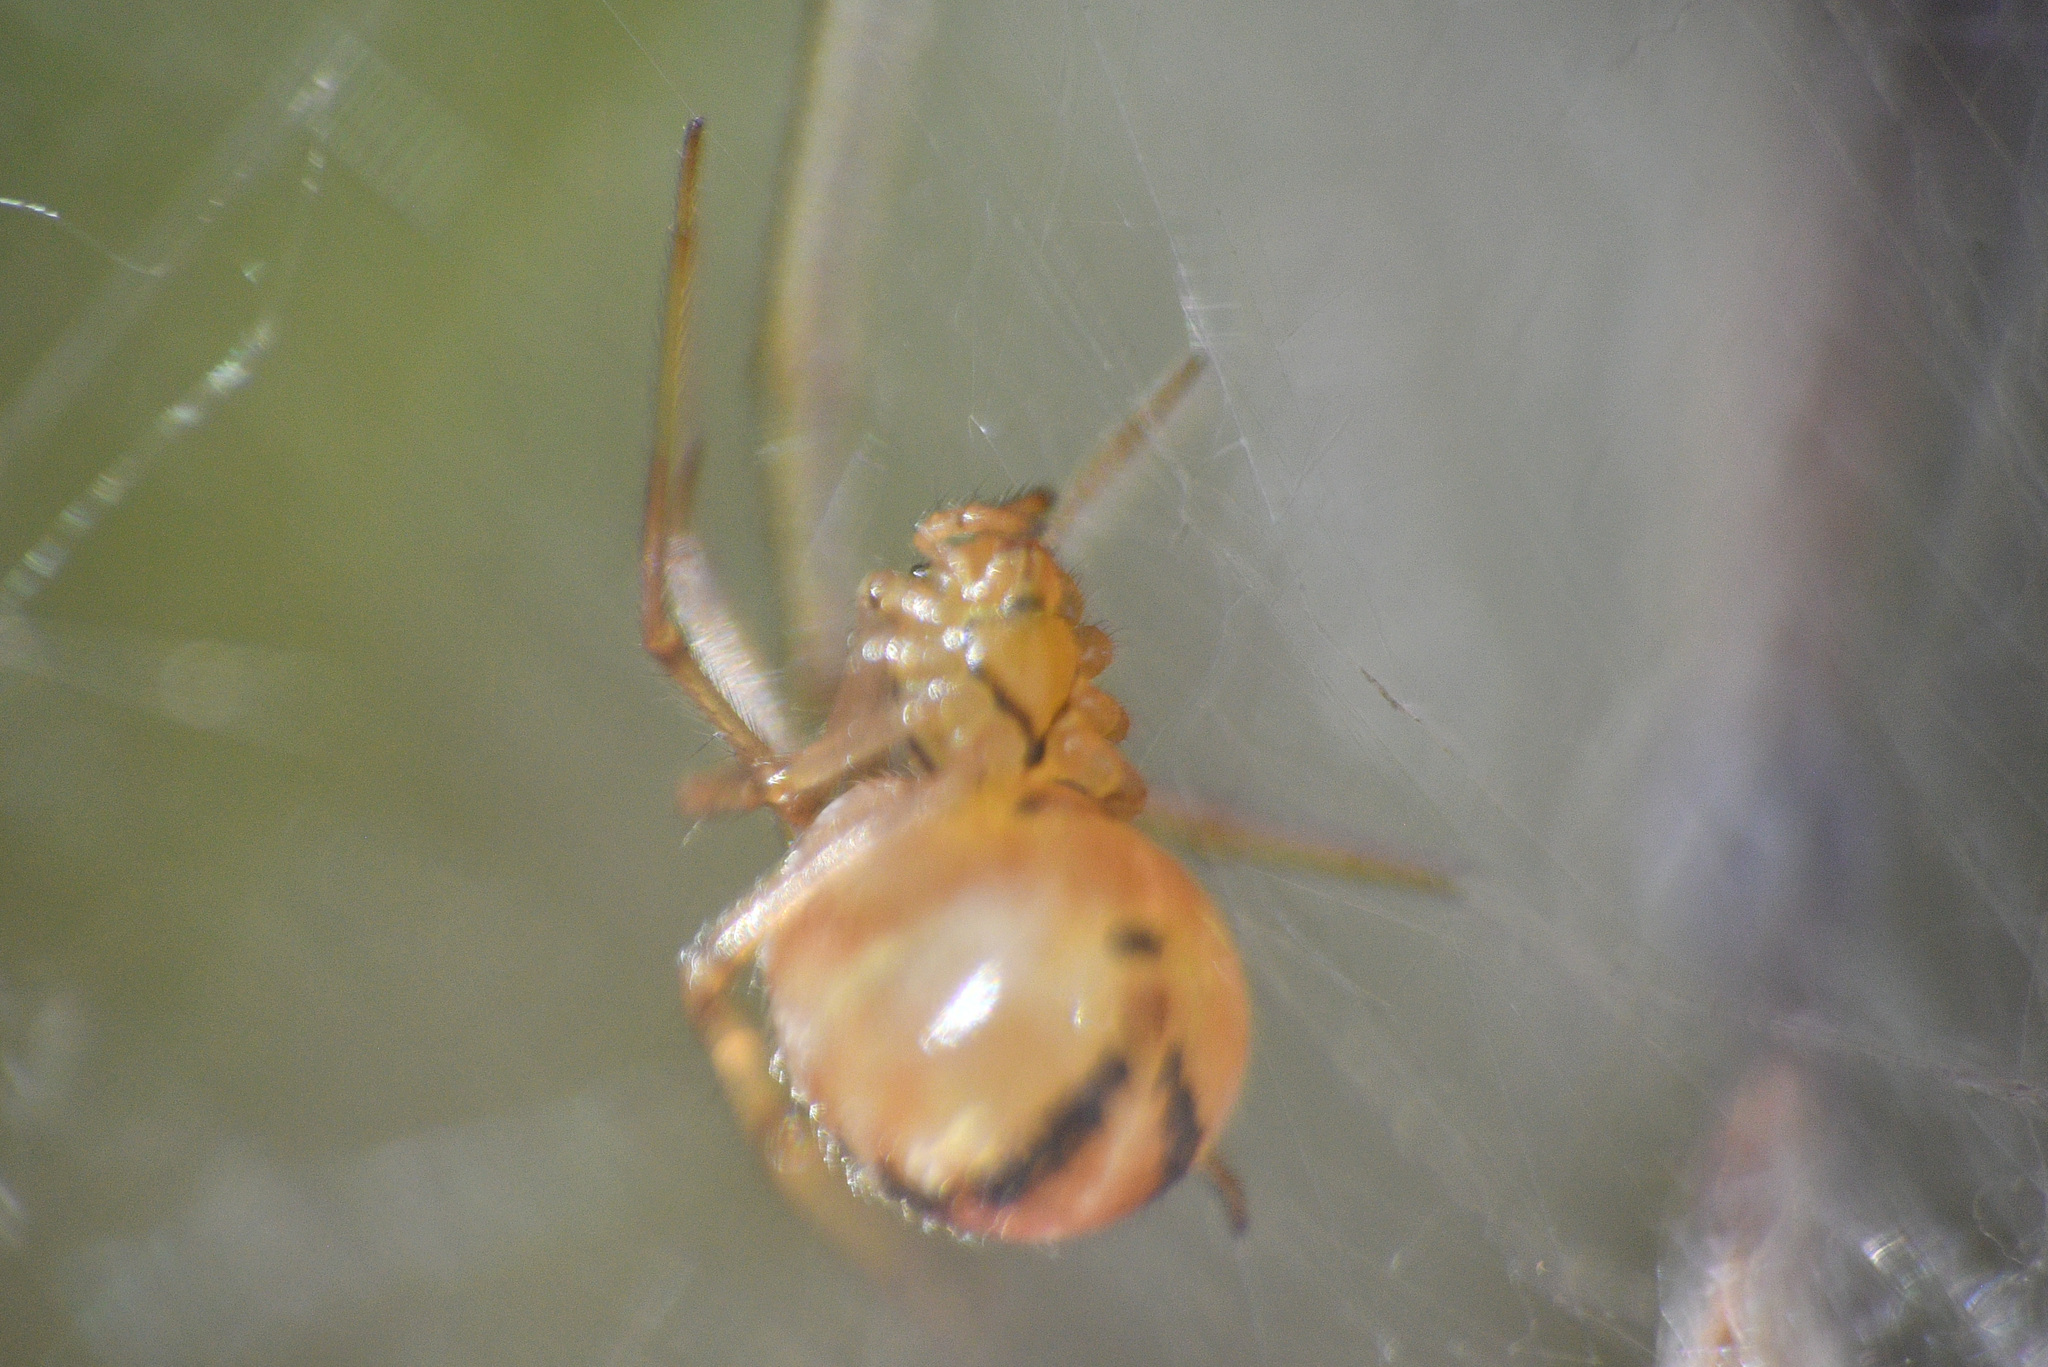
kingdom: Animalia
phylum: Arthropoda
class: Arachnida
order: Araneae
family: Theridiidae
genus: Phylloneta
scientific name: Phylloneta impressa
